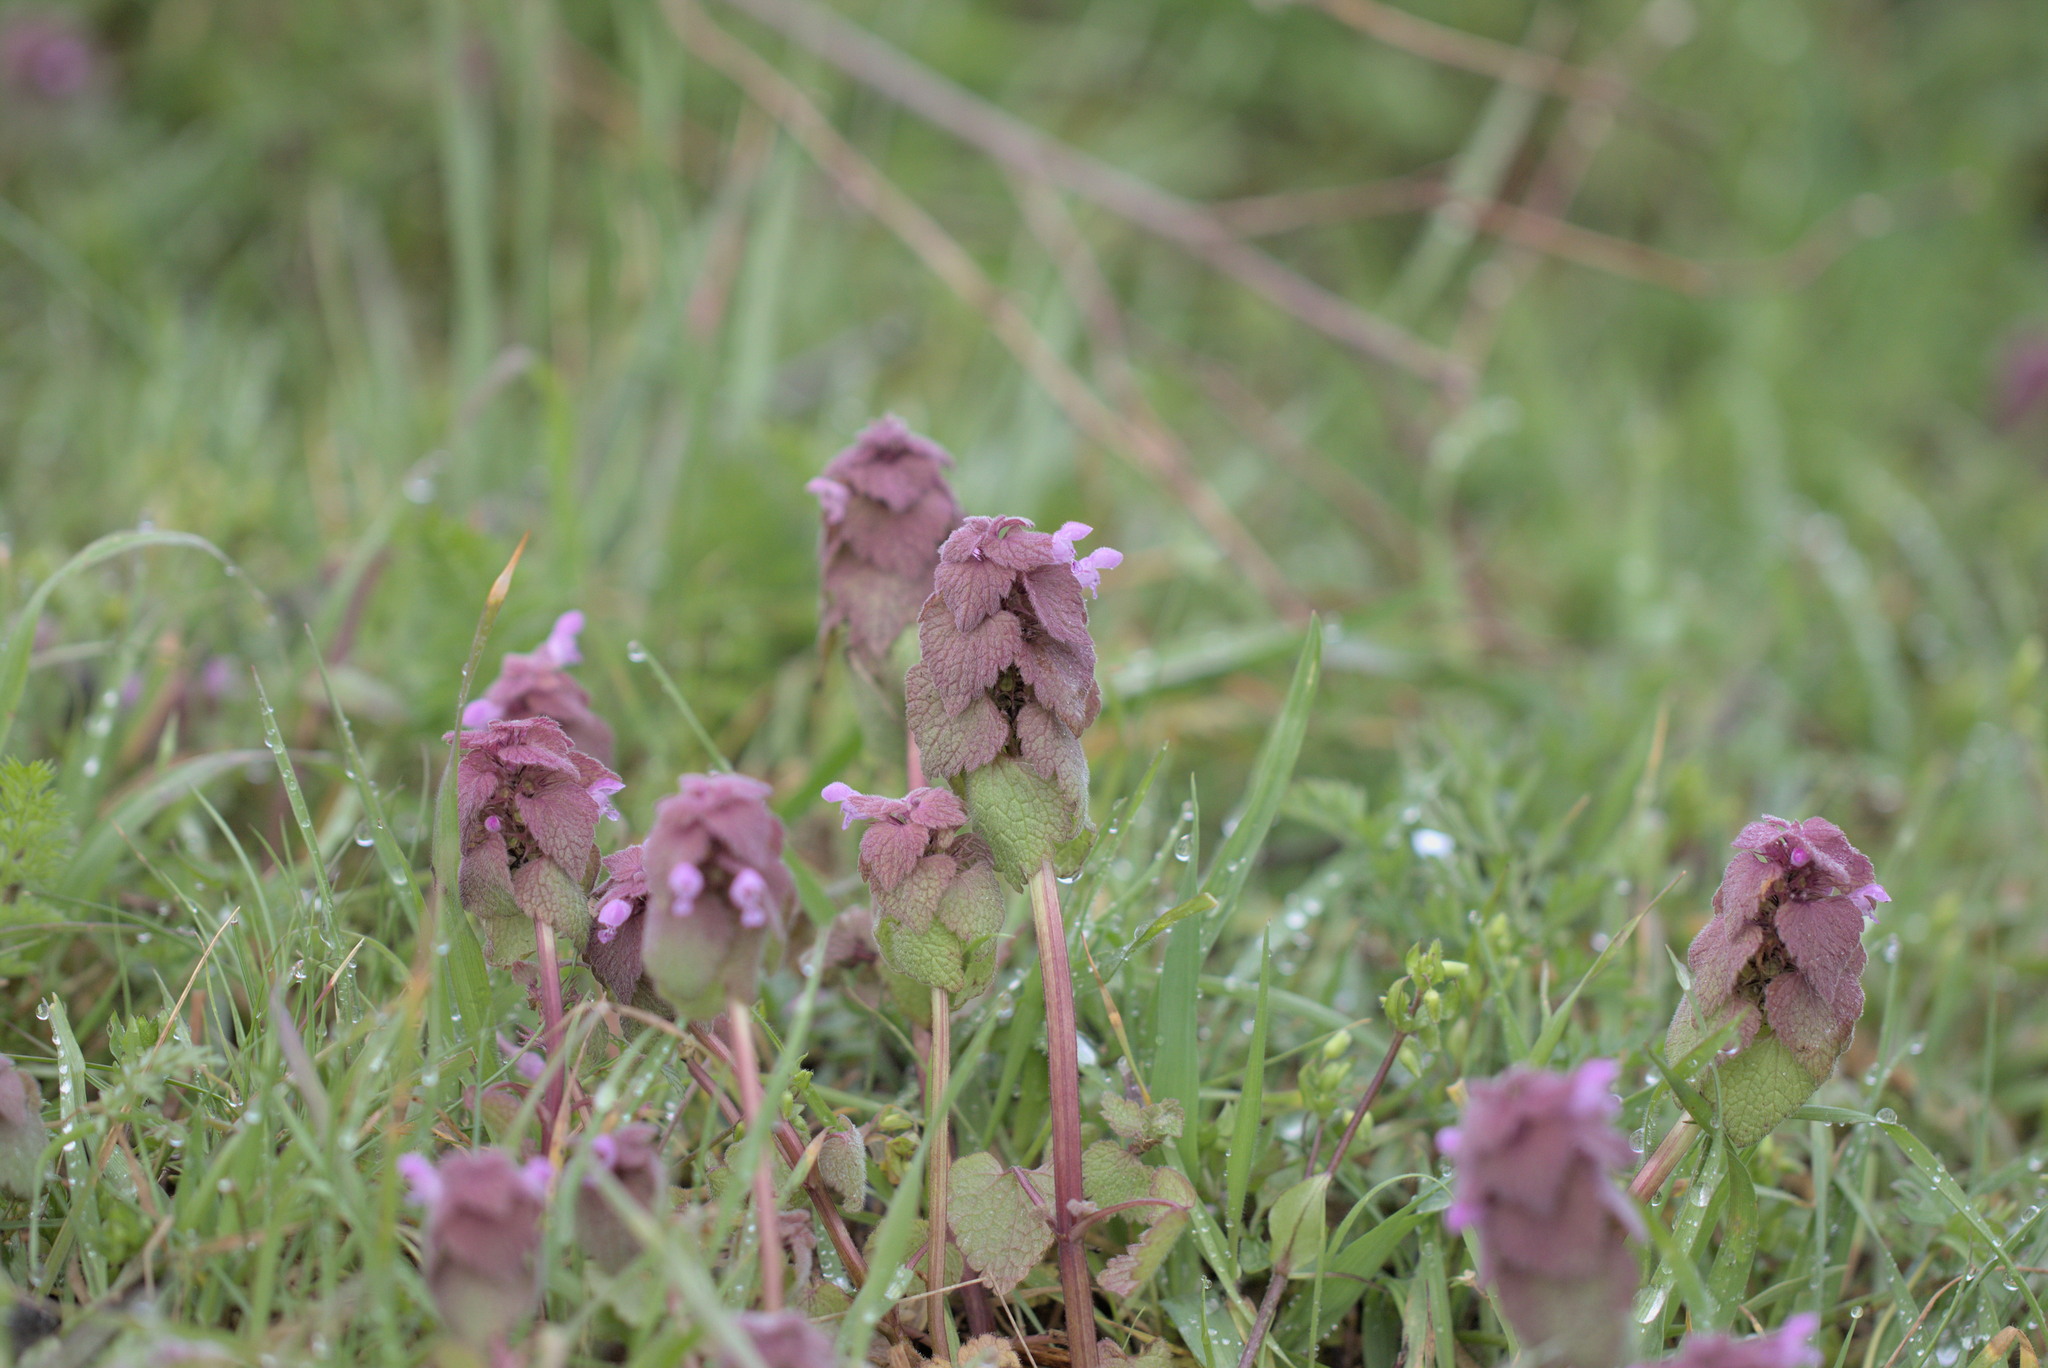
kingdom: Plantae
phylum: Tracheophyta
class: Magnoliopsida
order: Lamiales
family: Lamiaceae
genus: Lamium
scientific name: Lamium purpureum
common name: Red dead-nettle
